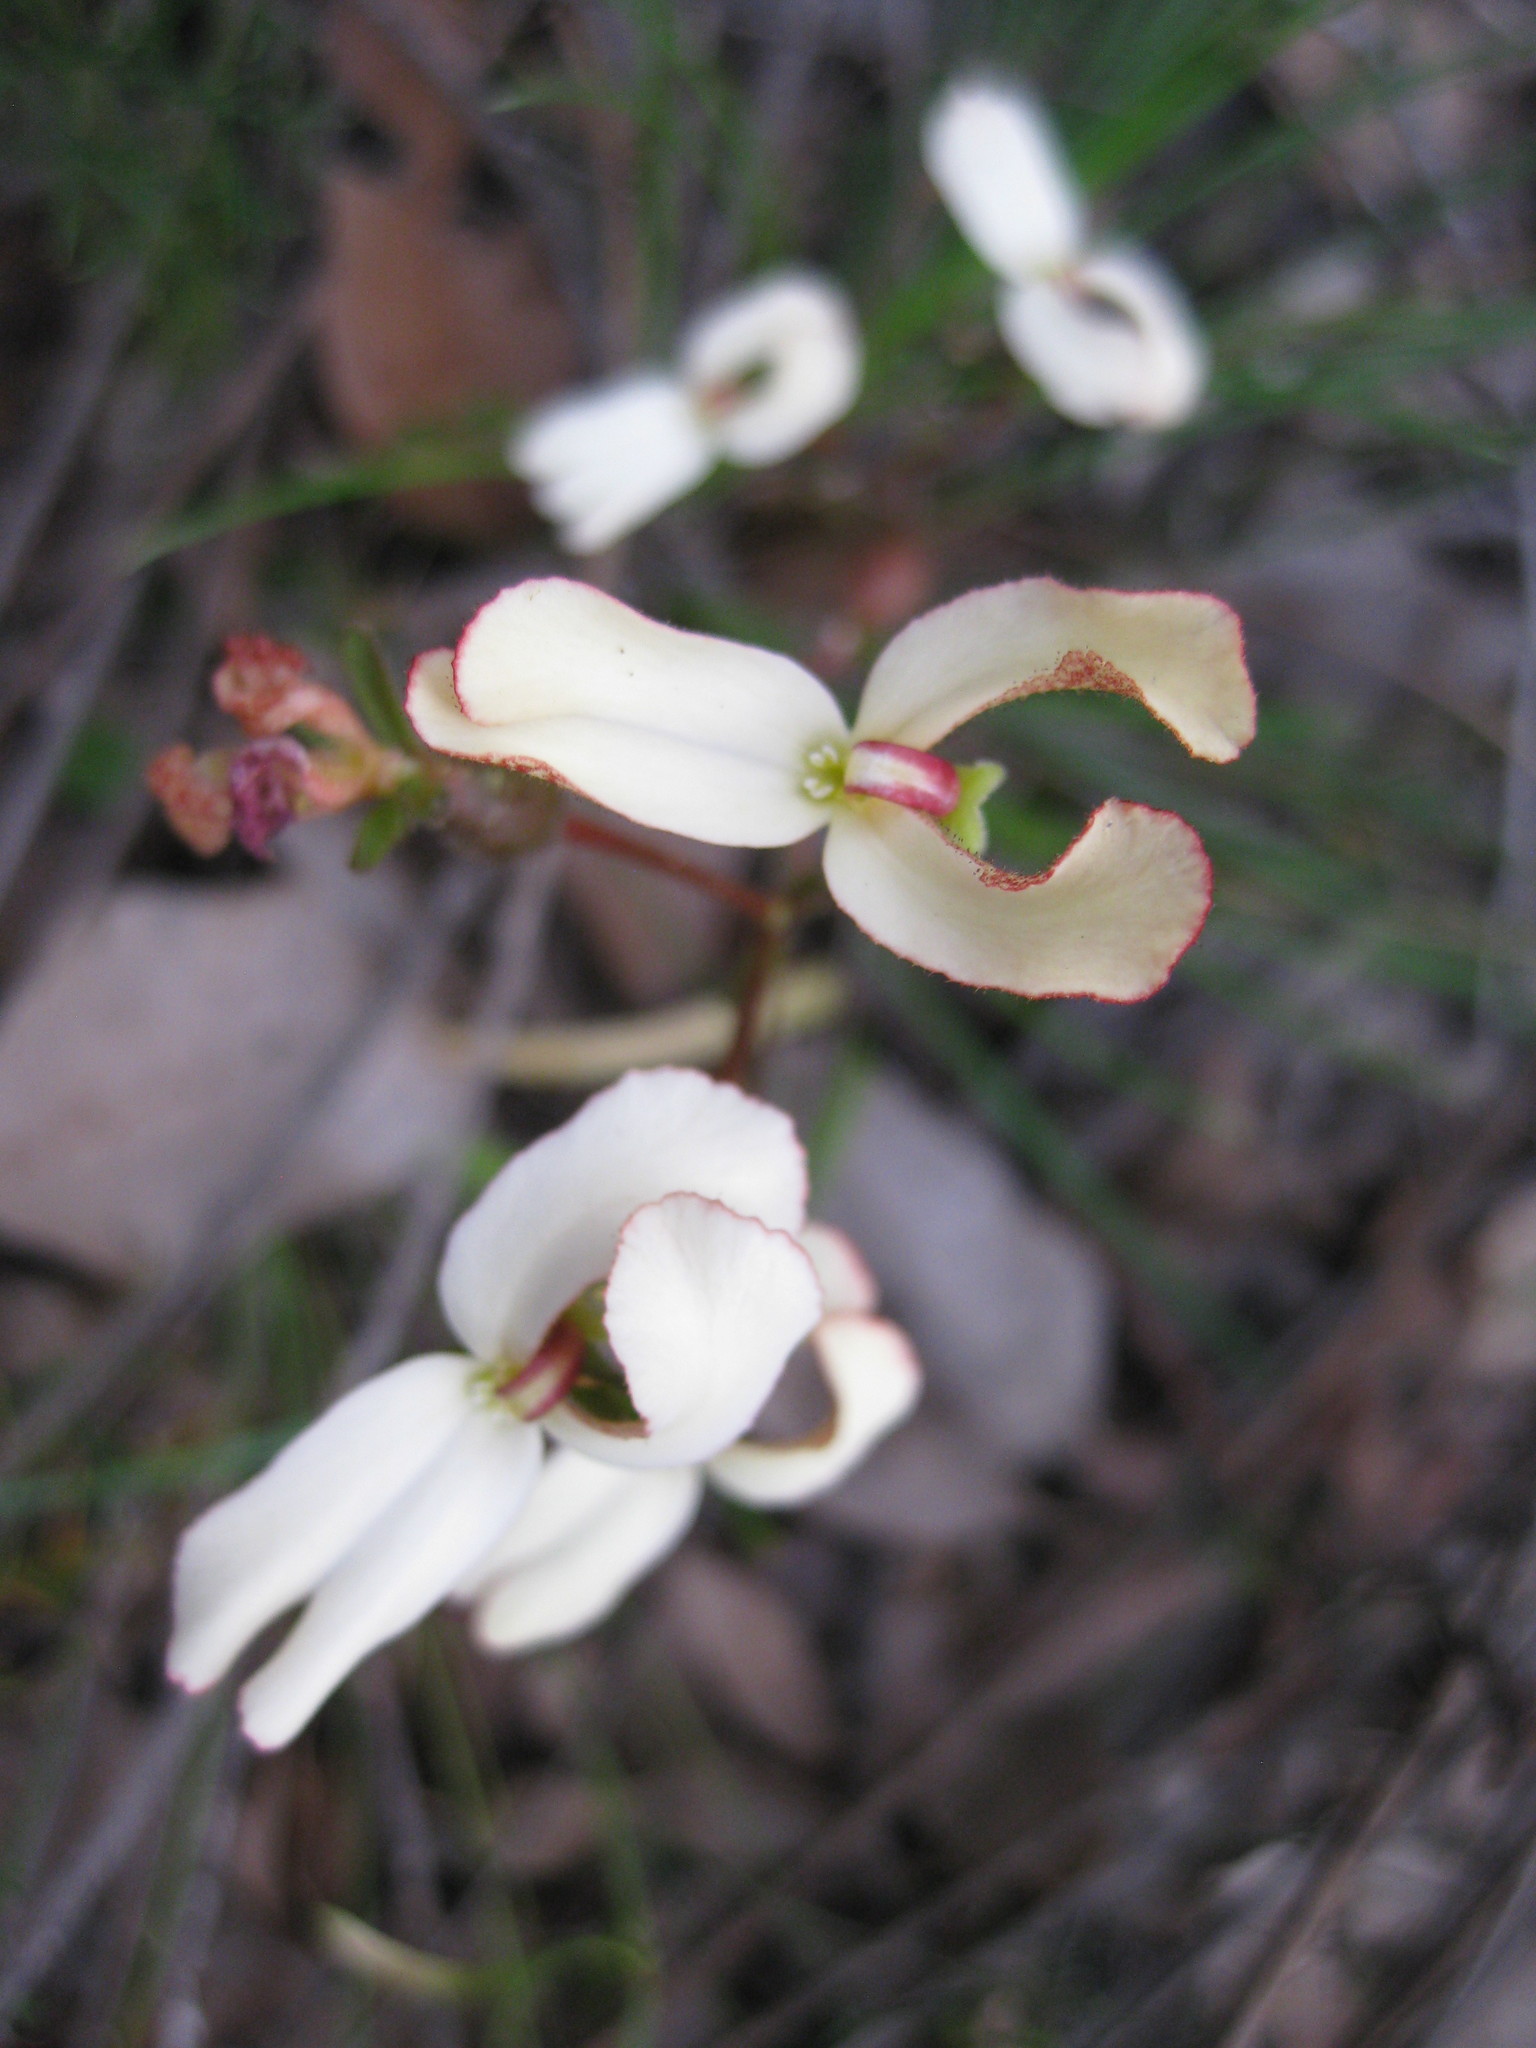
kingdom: Plantae
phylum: Tracheophyta
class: Magnoliopsida
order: Asterales
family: Stylidiaceae
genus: Stylidium
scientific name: Stylidium schoenoides
